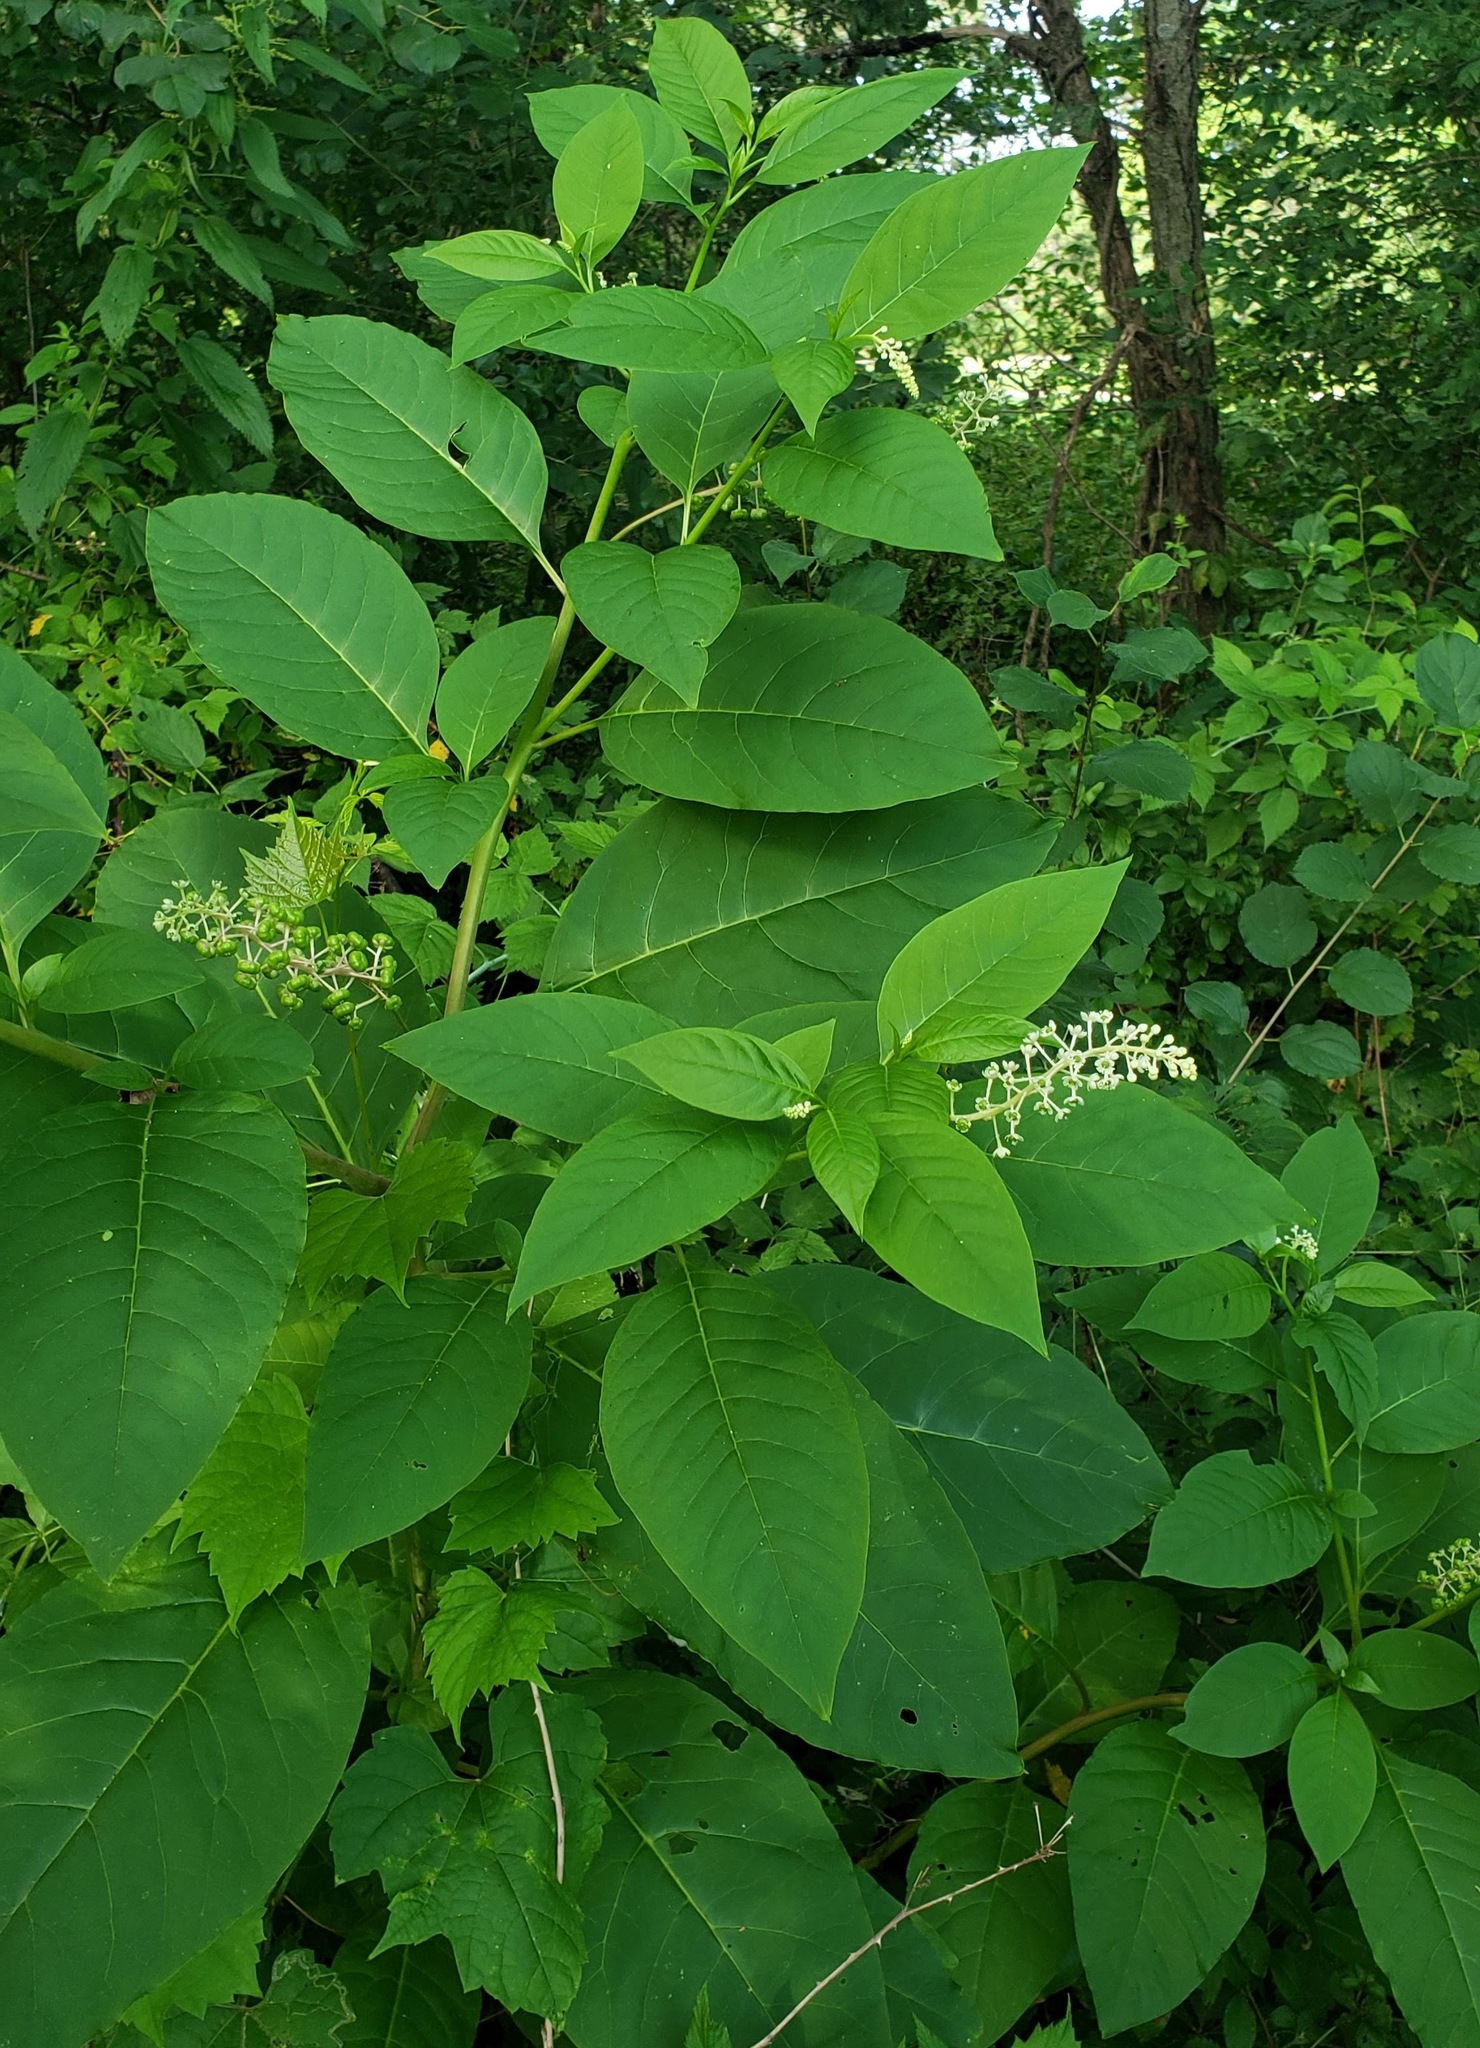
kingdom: Plantae
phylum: Tracheophyta
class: Magnoliopsida
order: Caryophyllales
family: Phytolaccaceae
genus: Phytolacca
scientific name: Phytolacca americana
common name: American pokeweed
